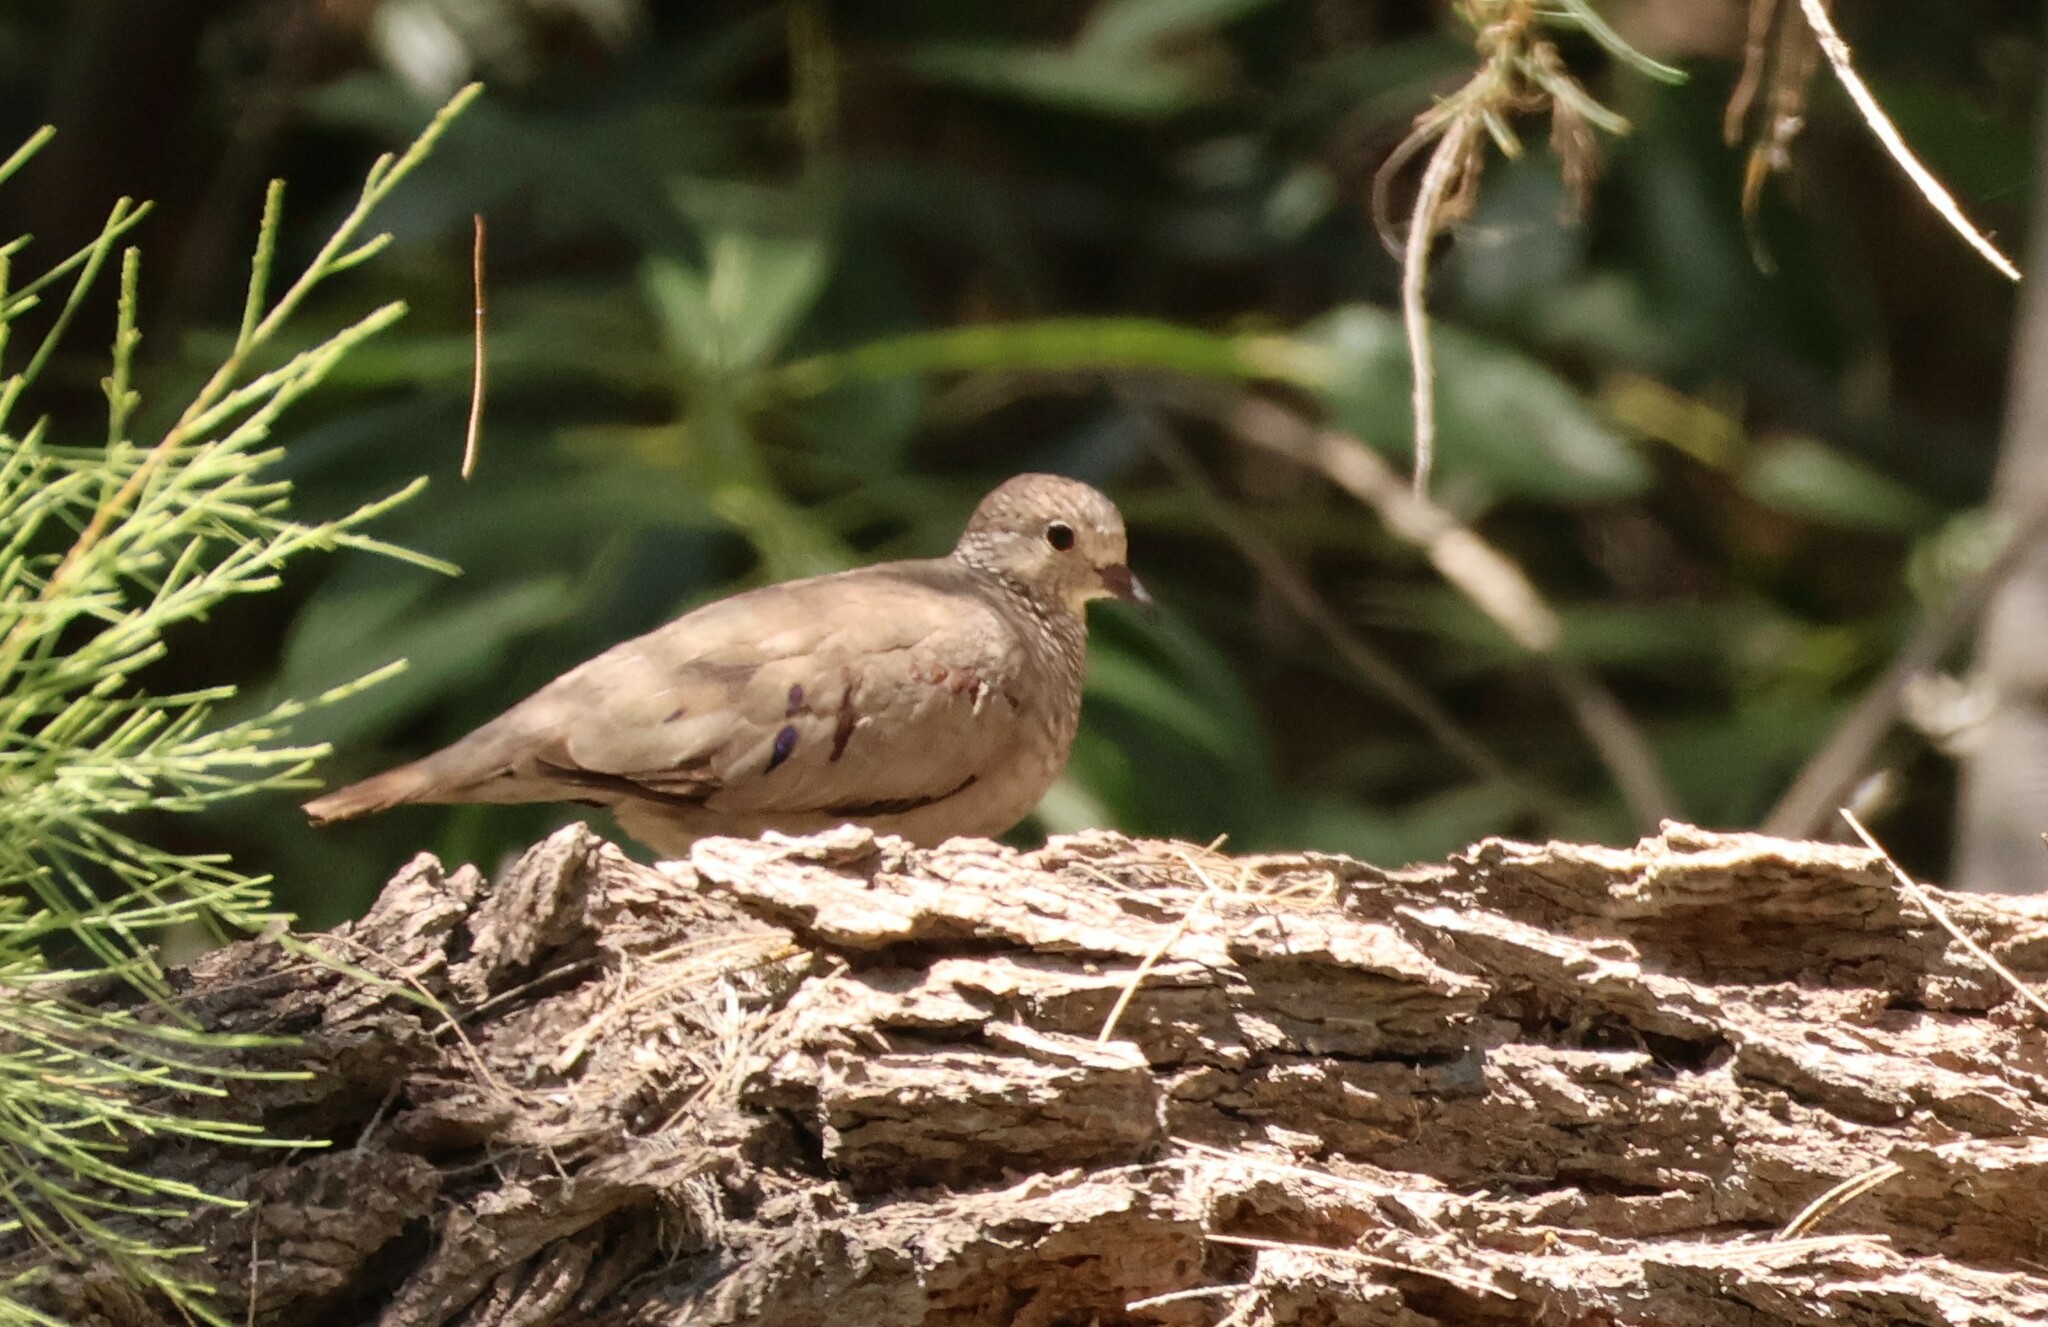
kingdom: Animalia
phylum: Chordata
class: Aves
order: Columbiformes
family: Columbidae
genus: Columbina
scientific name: Columbina passerina
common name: Common ground-dove
